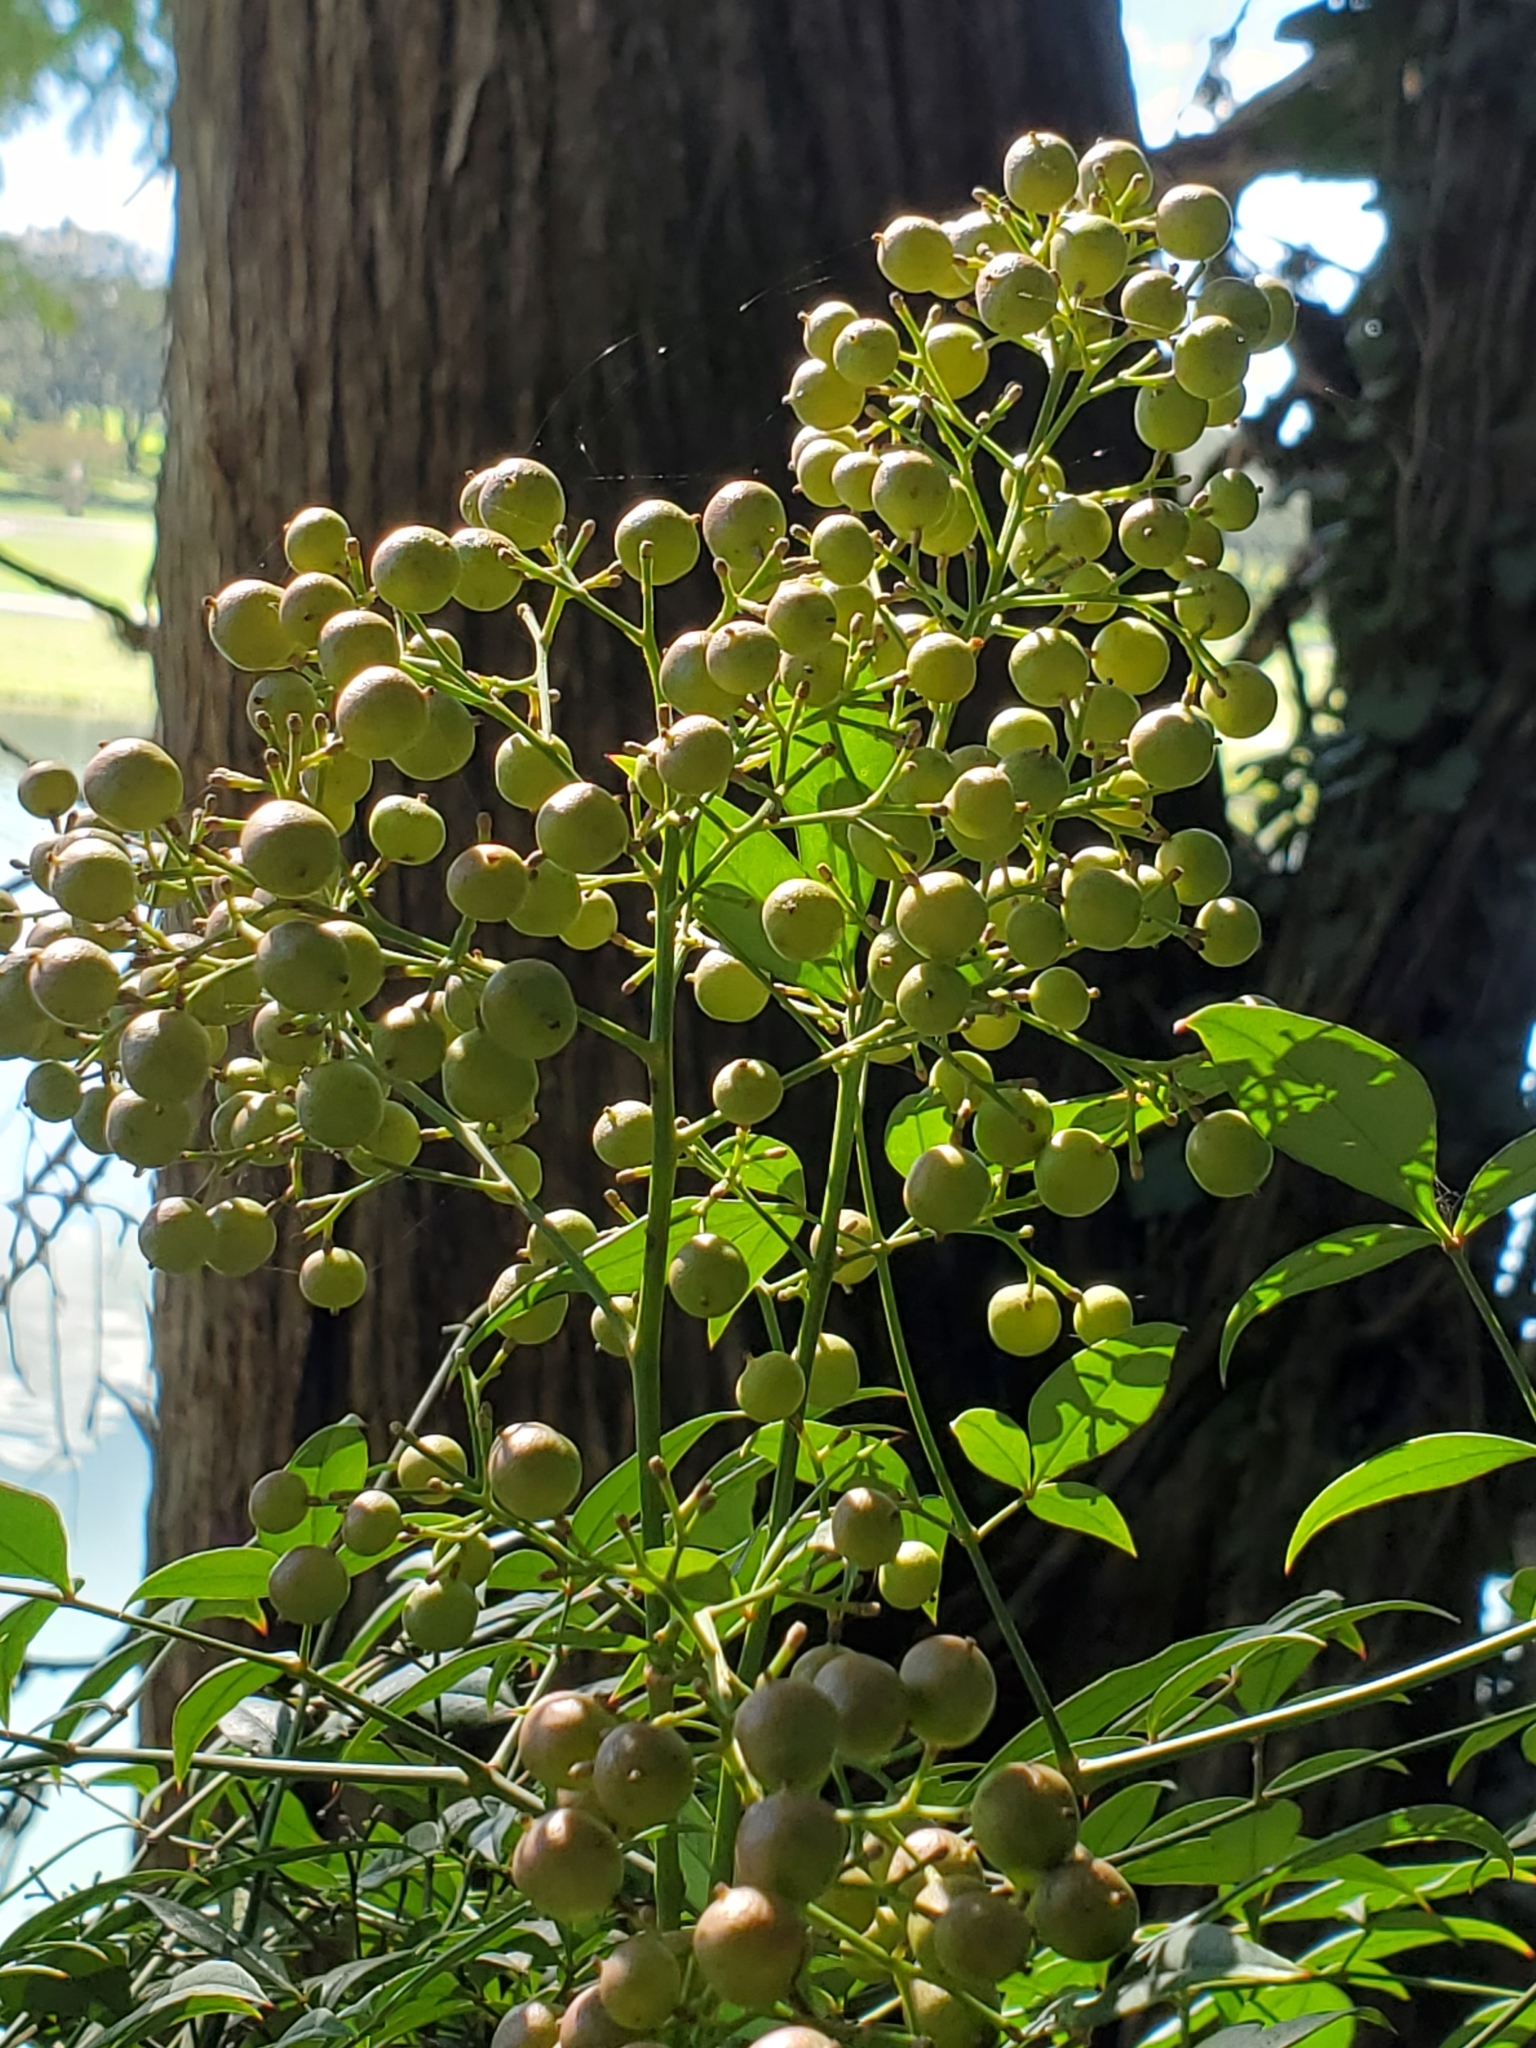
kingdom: Plantae
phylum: Tracheophyta
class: Magnoliopsida
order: Ranunculales
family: Berberidaceae
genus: Nandina
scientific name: Nandina domestica
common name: Sacred bamboo
